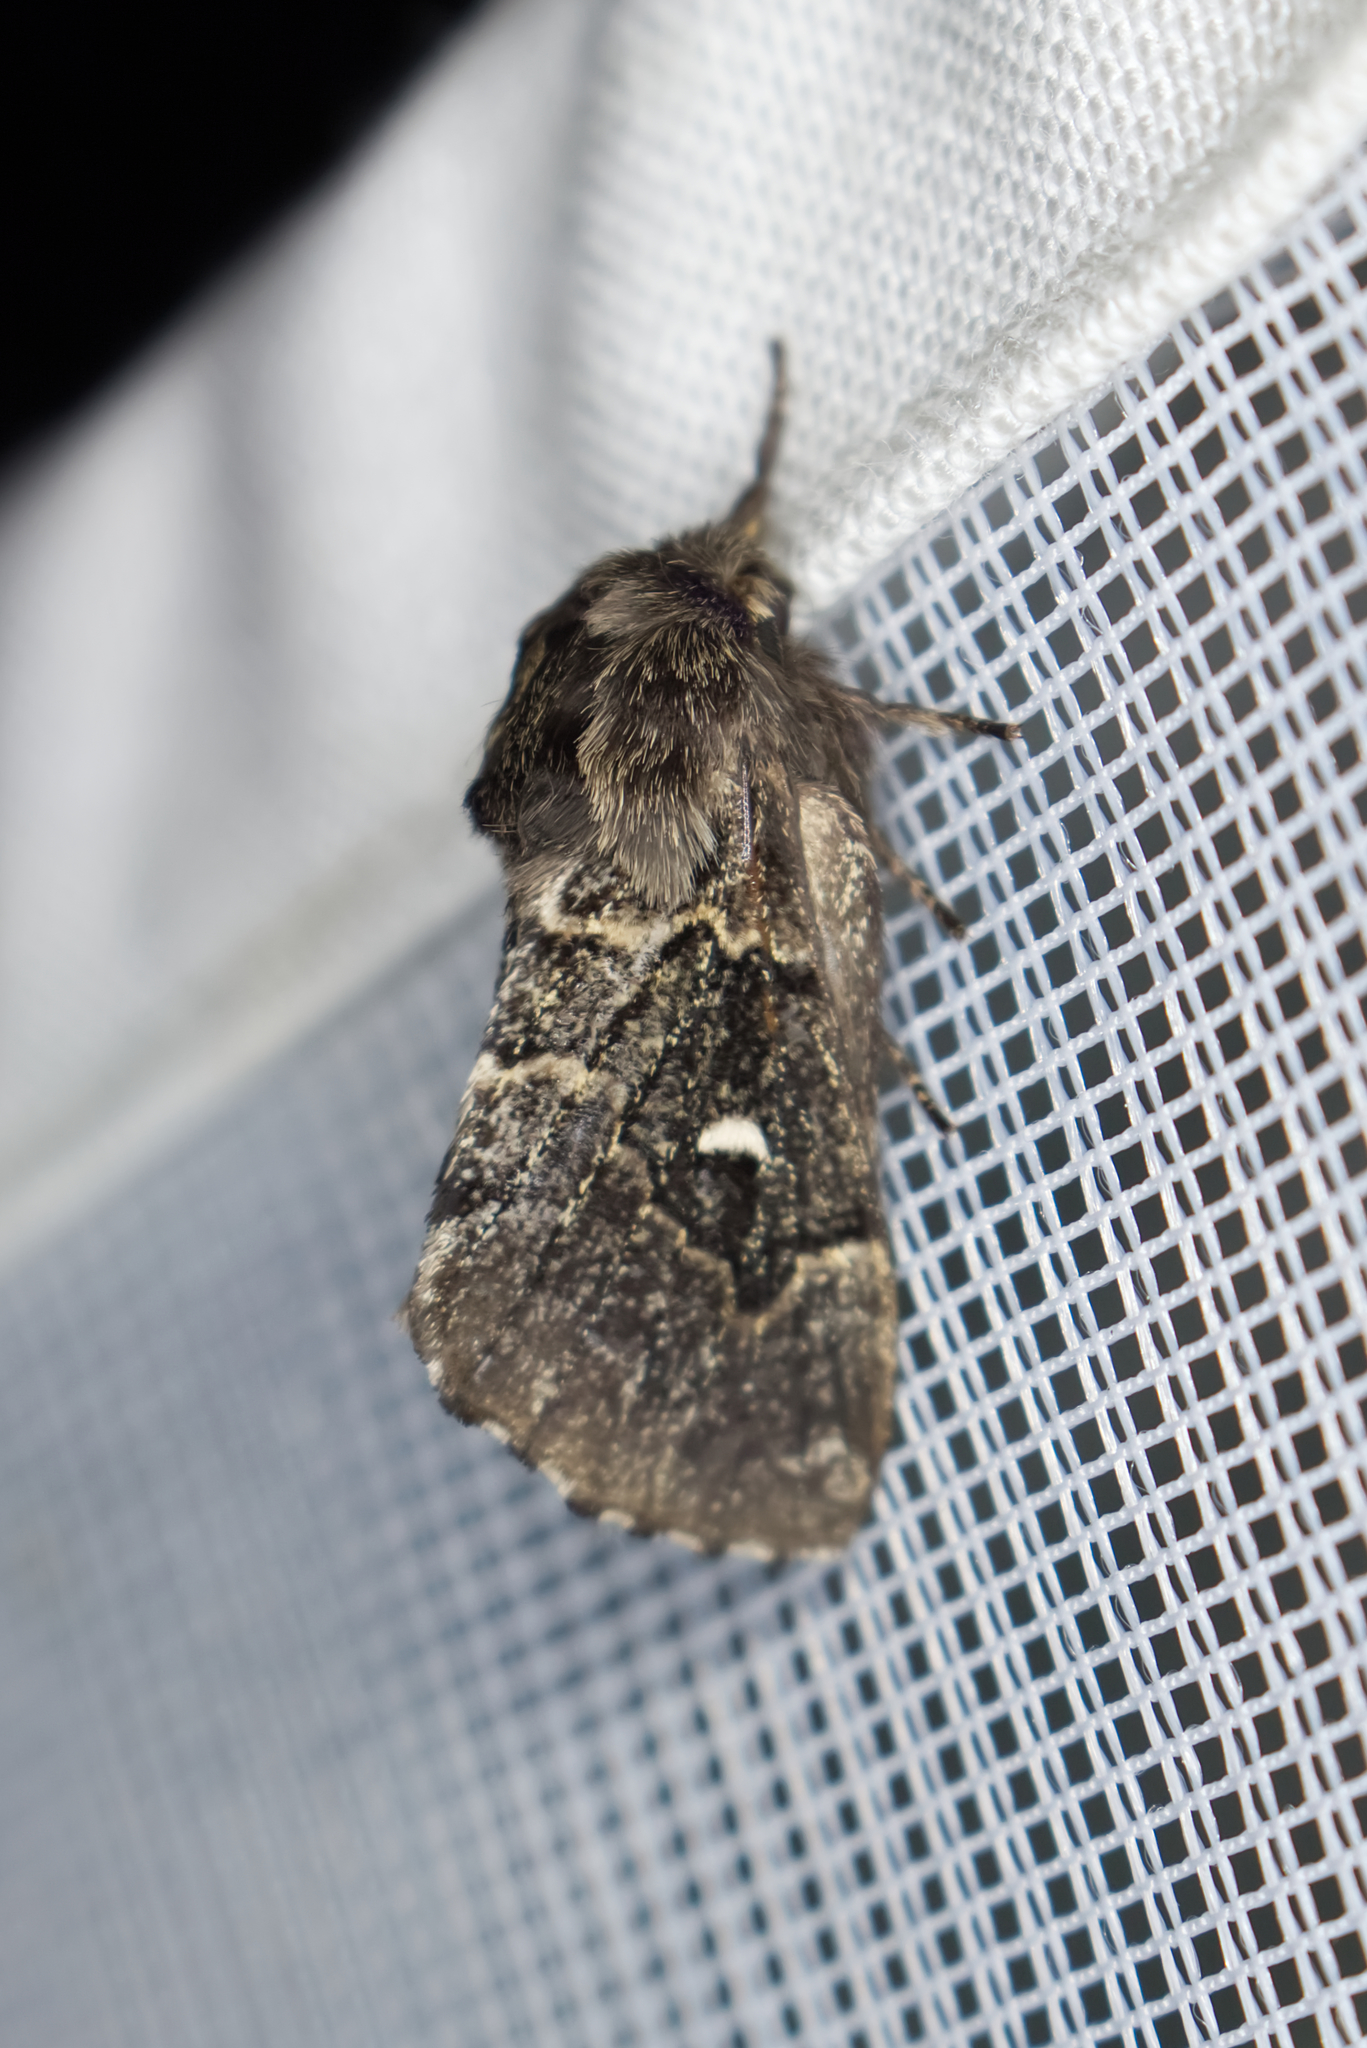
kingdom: Animalia
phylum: Arthropoda
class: Insecta
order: Lepidoptera
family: Lasiocampidae
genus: Cosmotriche
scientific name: Cosmotriche lobulina
